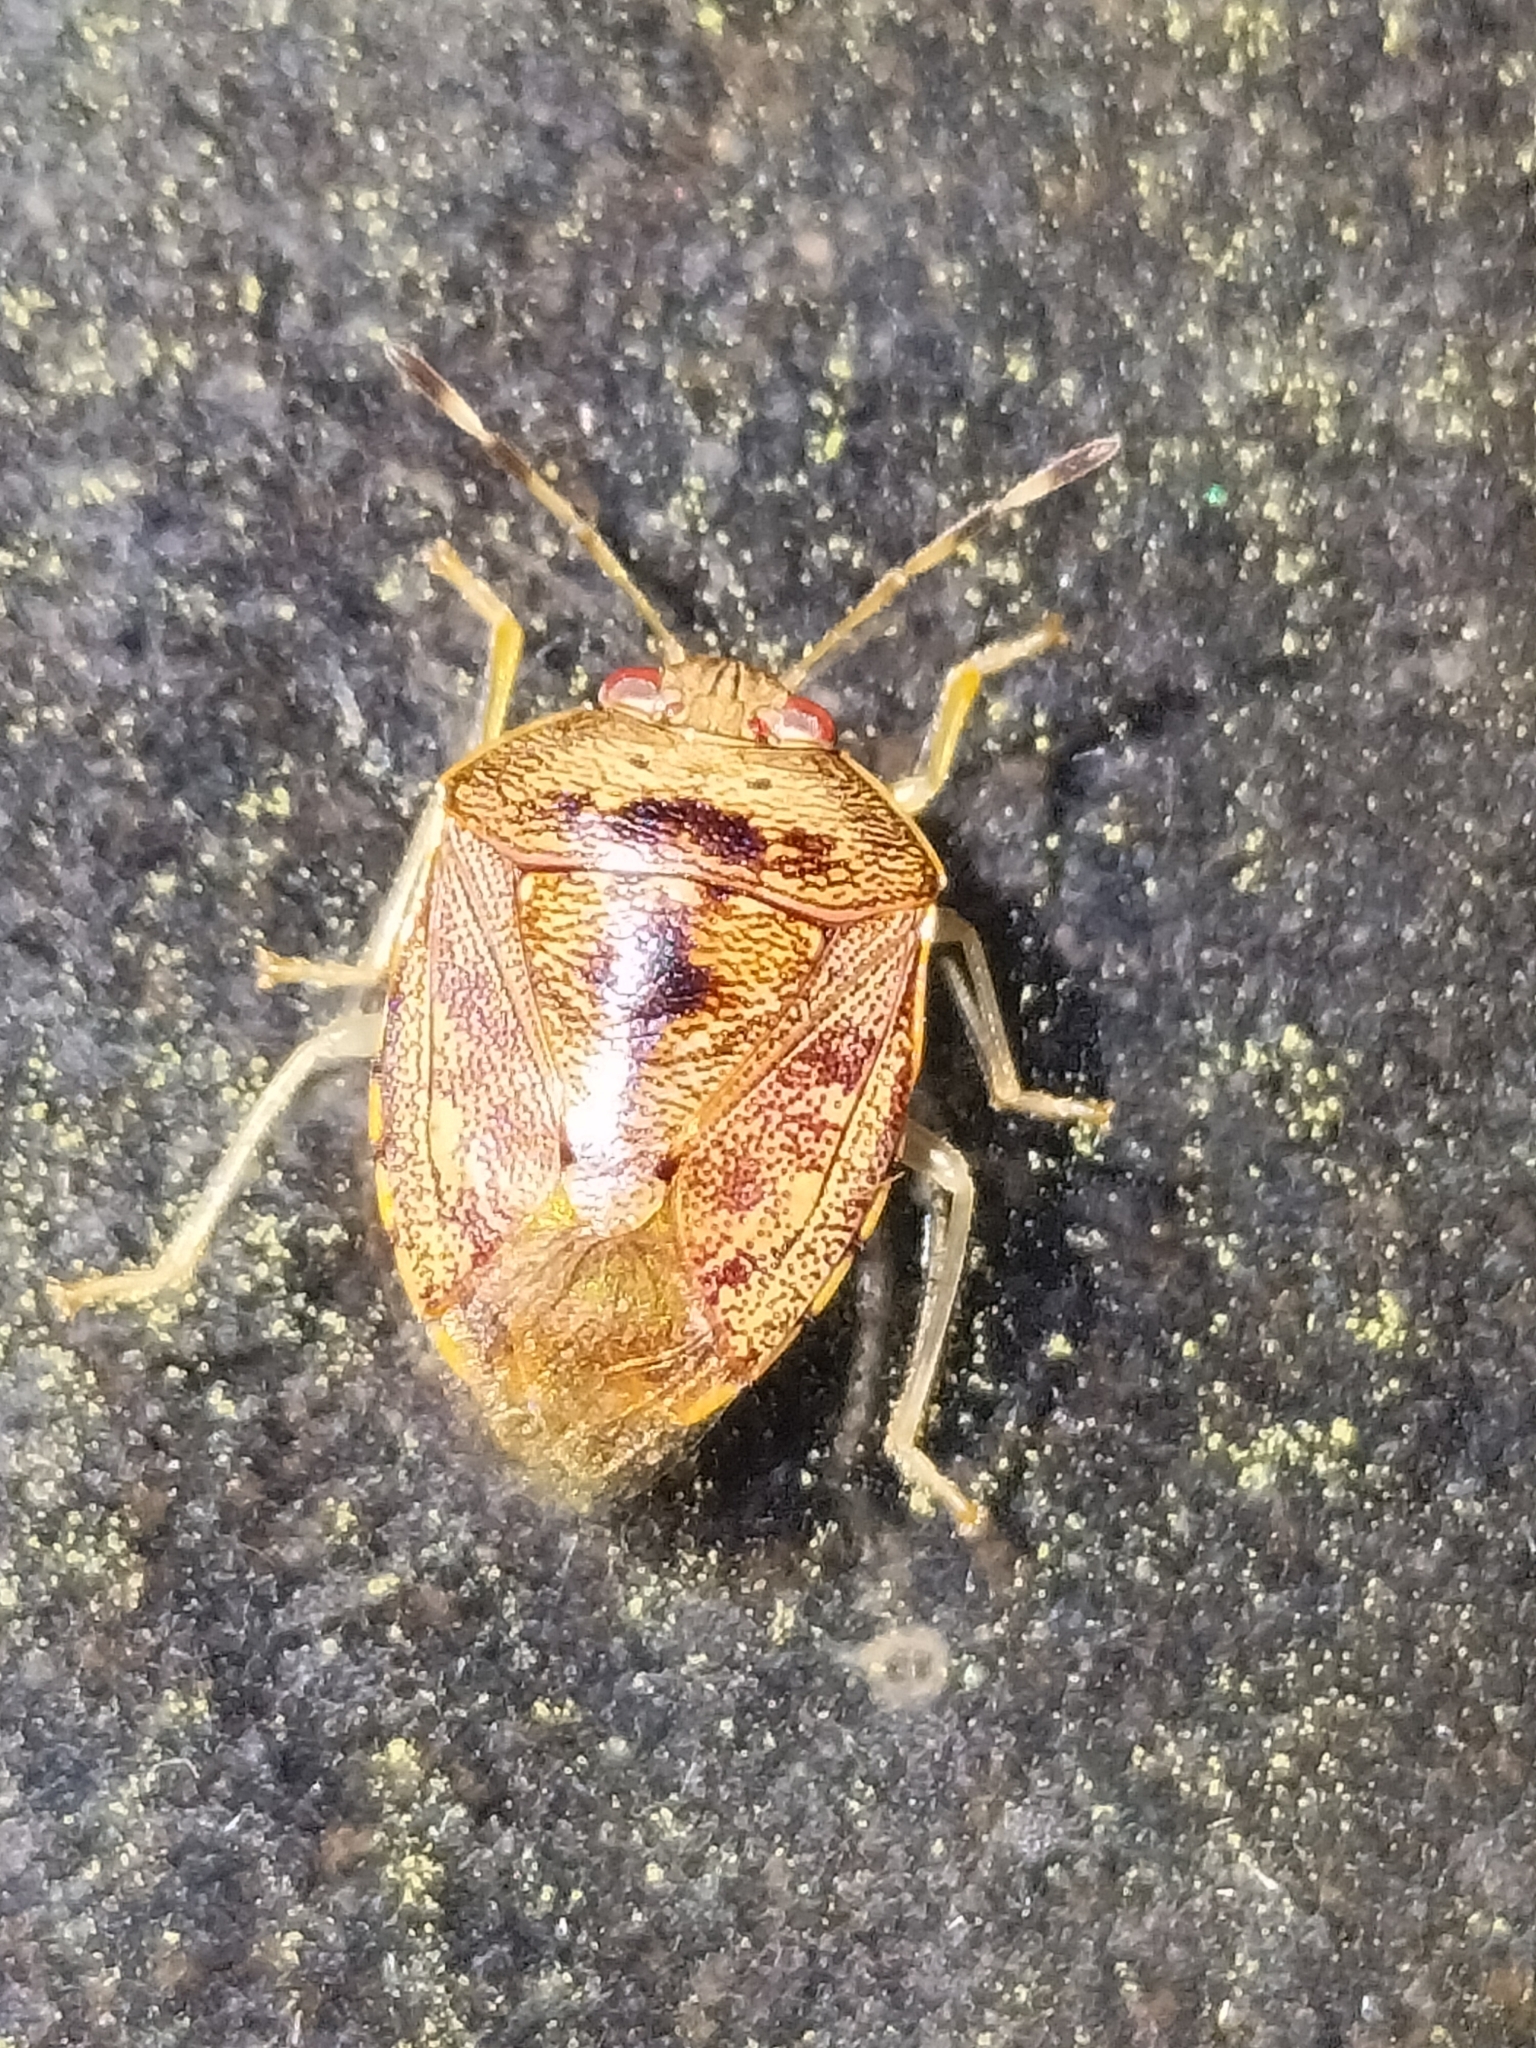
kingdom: Animalia
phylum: Arthropoda
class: Insecta
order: Hemiptera
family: Pentatomidae
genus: Menida
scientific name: Menida
